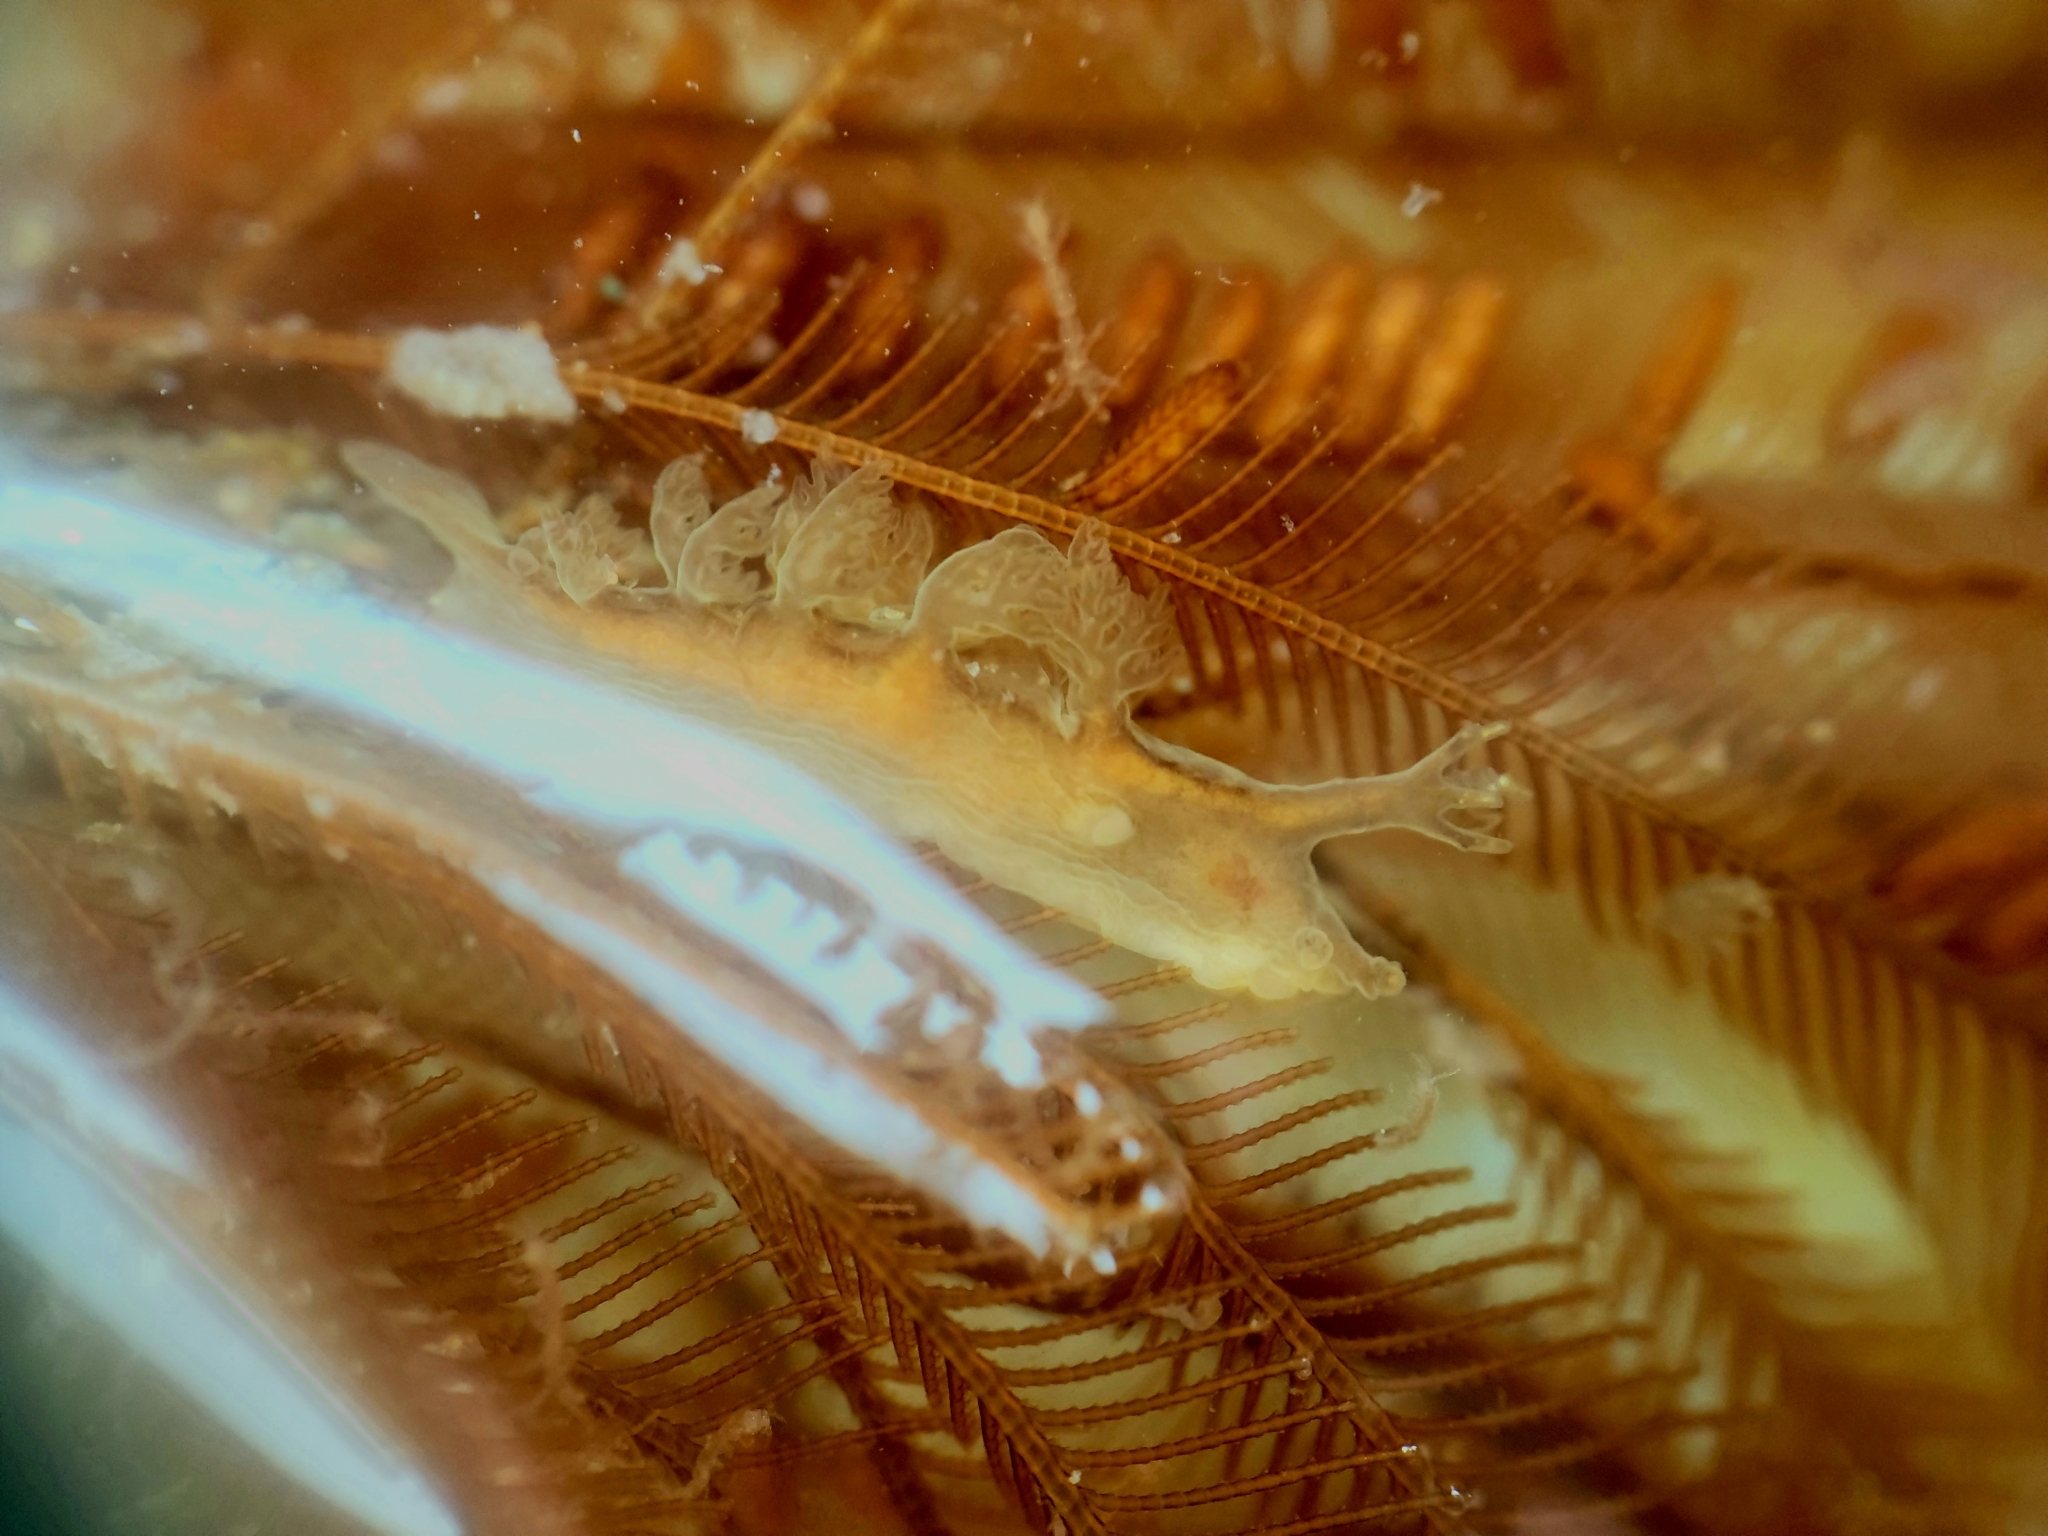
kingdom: Animalia
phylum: Mollusca
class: Gastropoda
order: Nudibranchia
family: Dendronotidae
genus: Dendronotus
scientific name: Dendronotus subramosus
